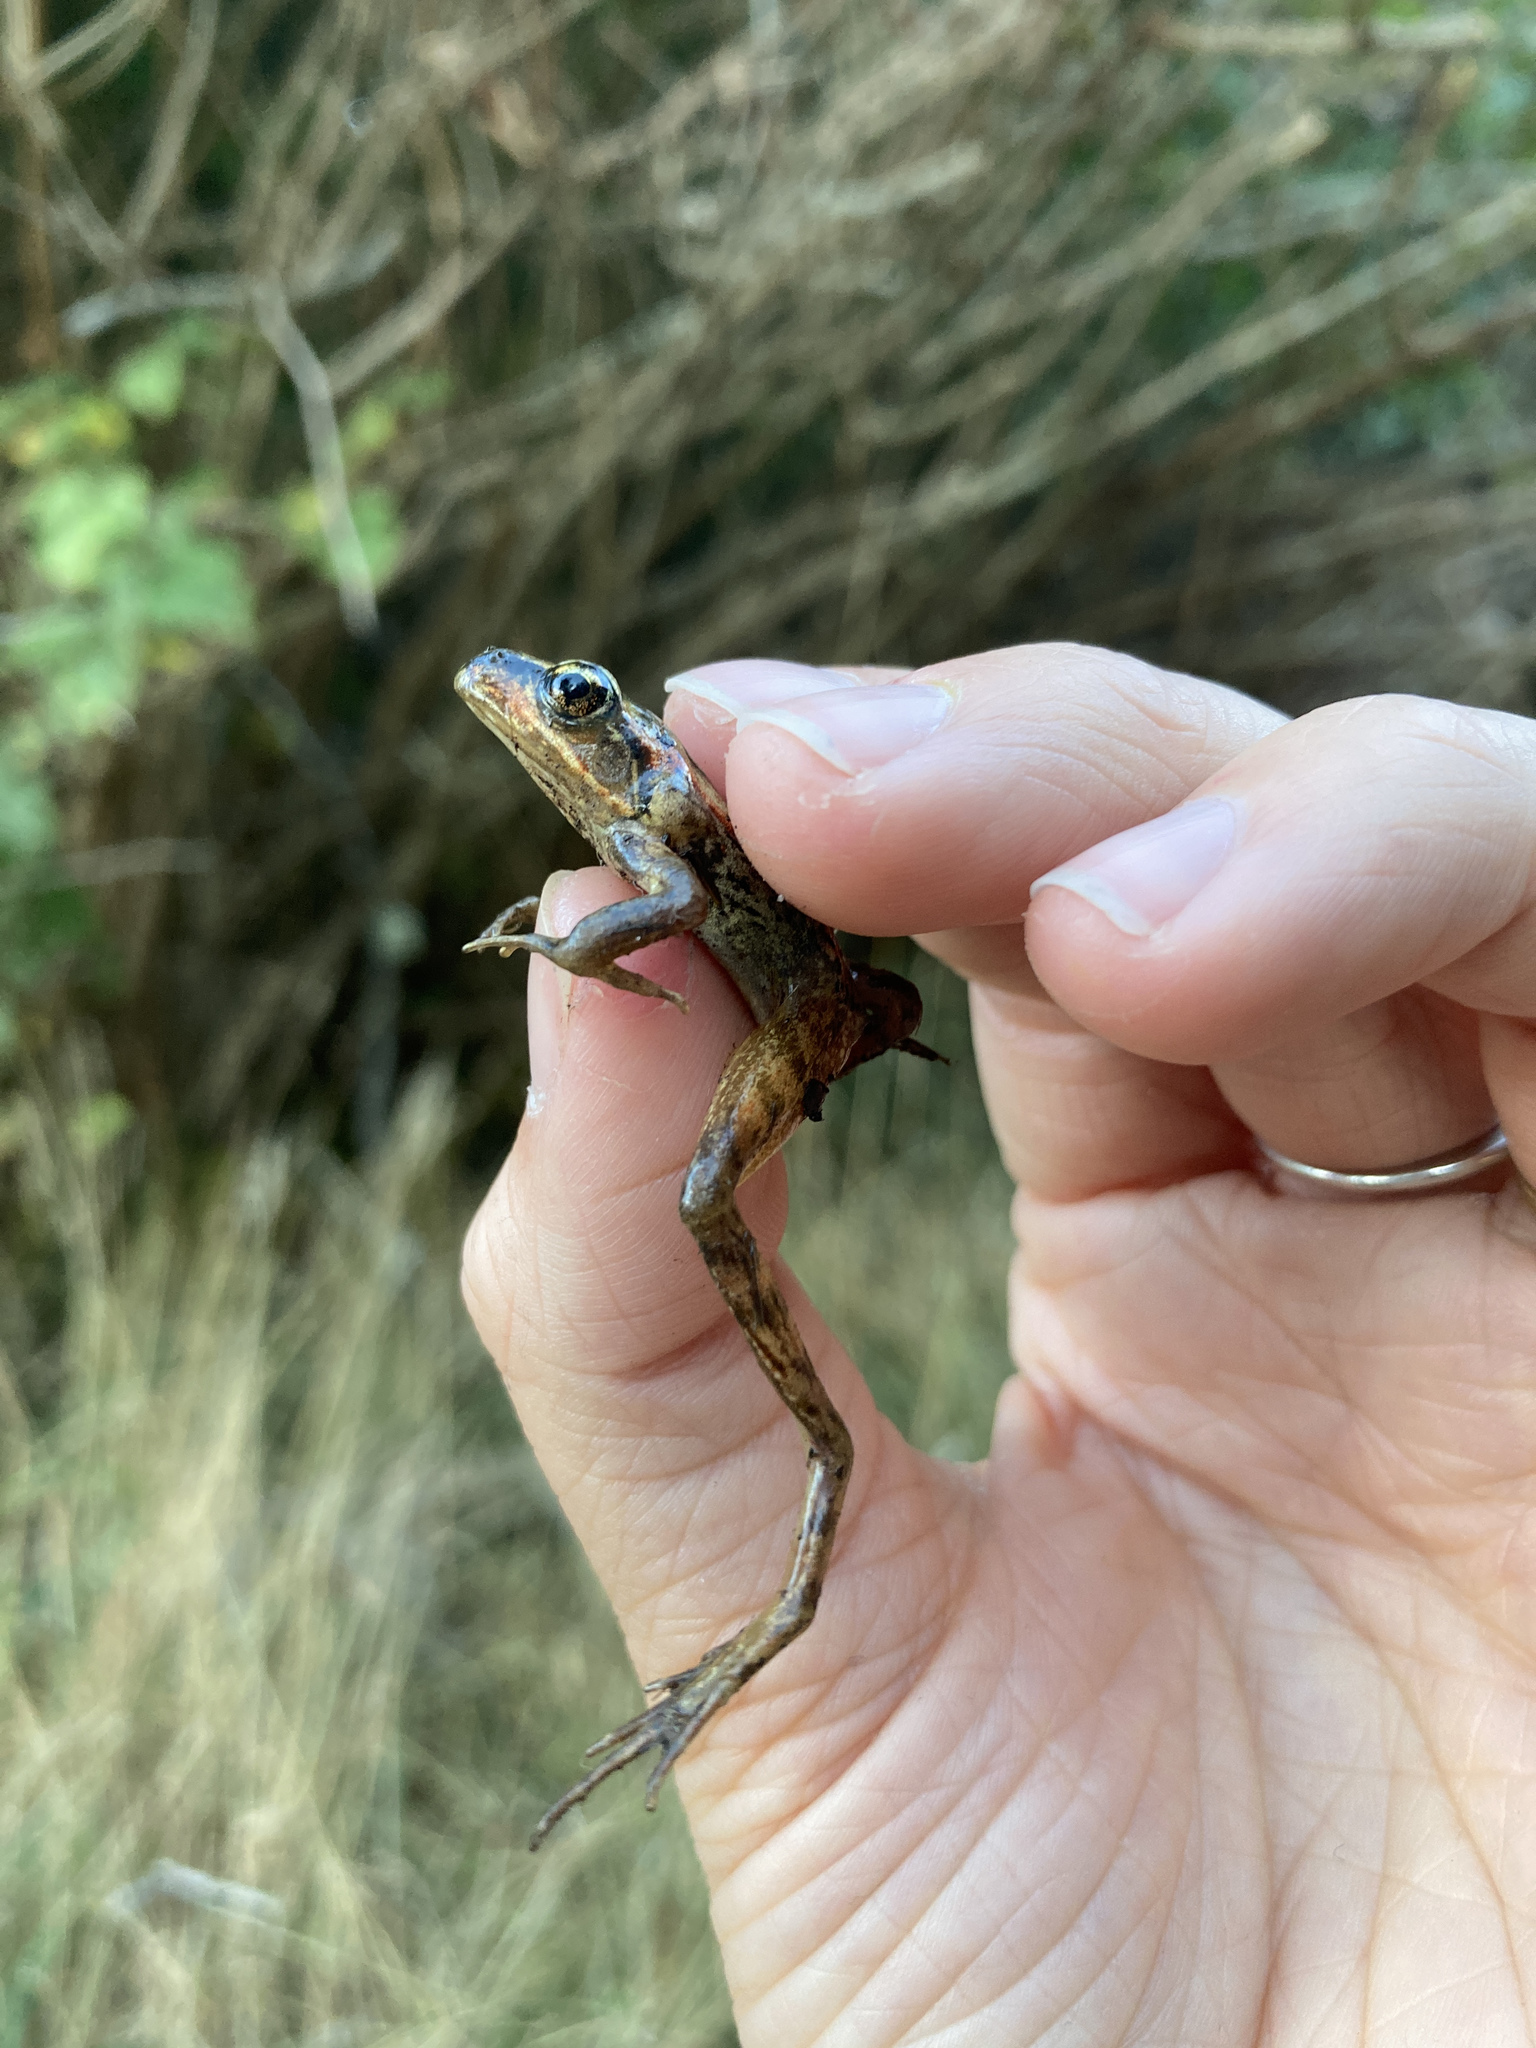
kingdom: Animalia
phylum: Chordata
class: Amphibia
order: Anura
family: Ranidae
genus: Rana
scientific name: Rana aurora
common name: Red-legged frog
